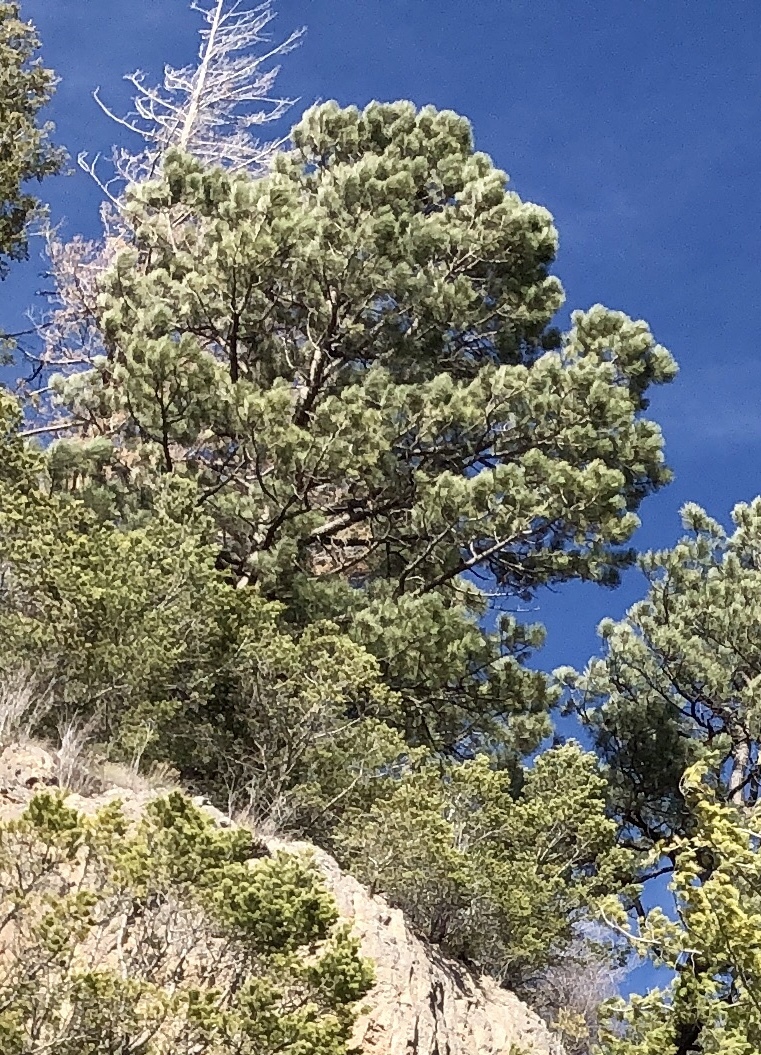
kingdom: Plantae
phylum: Tracheophyta
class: Pinopsida
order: Pinales
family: Pinaceae
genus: Pinus
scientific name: Pinus ponderosa
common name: Western yellow-pine
